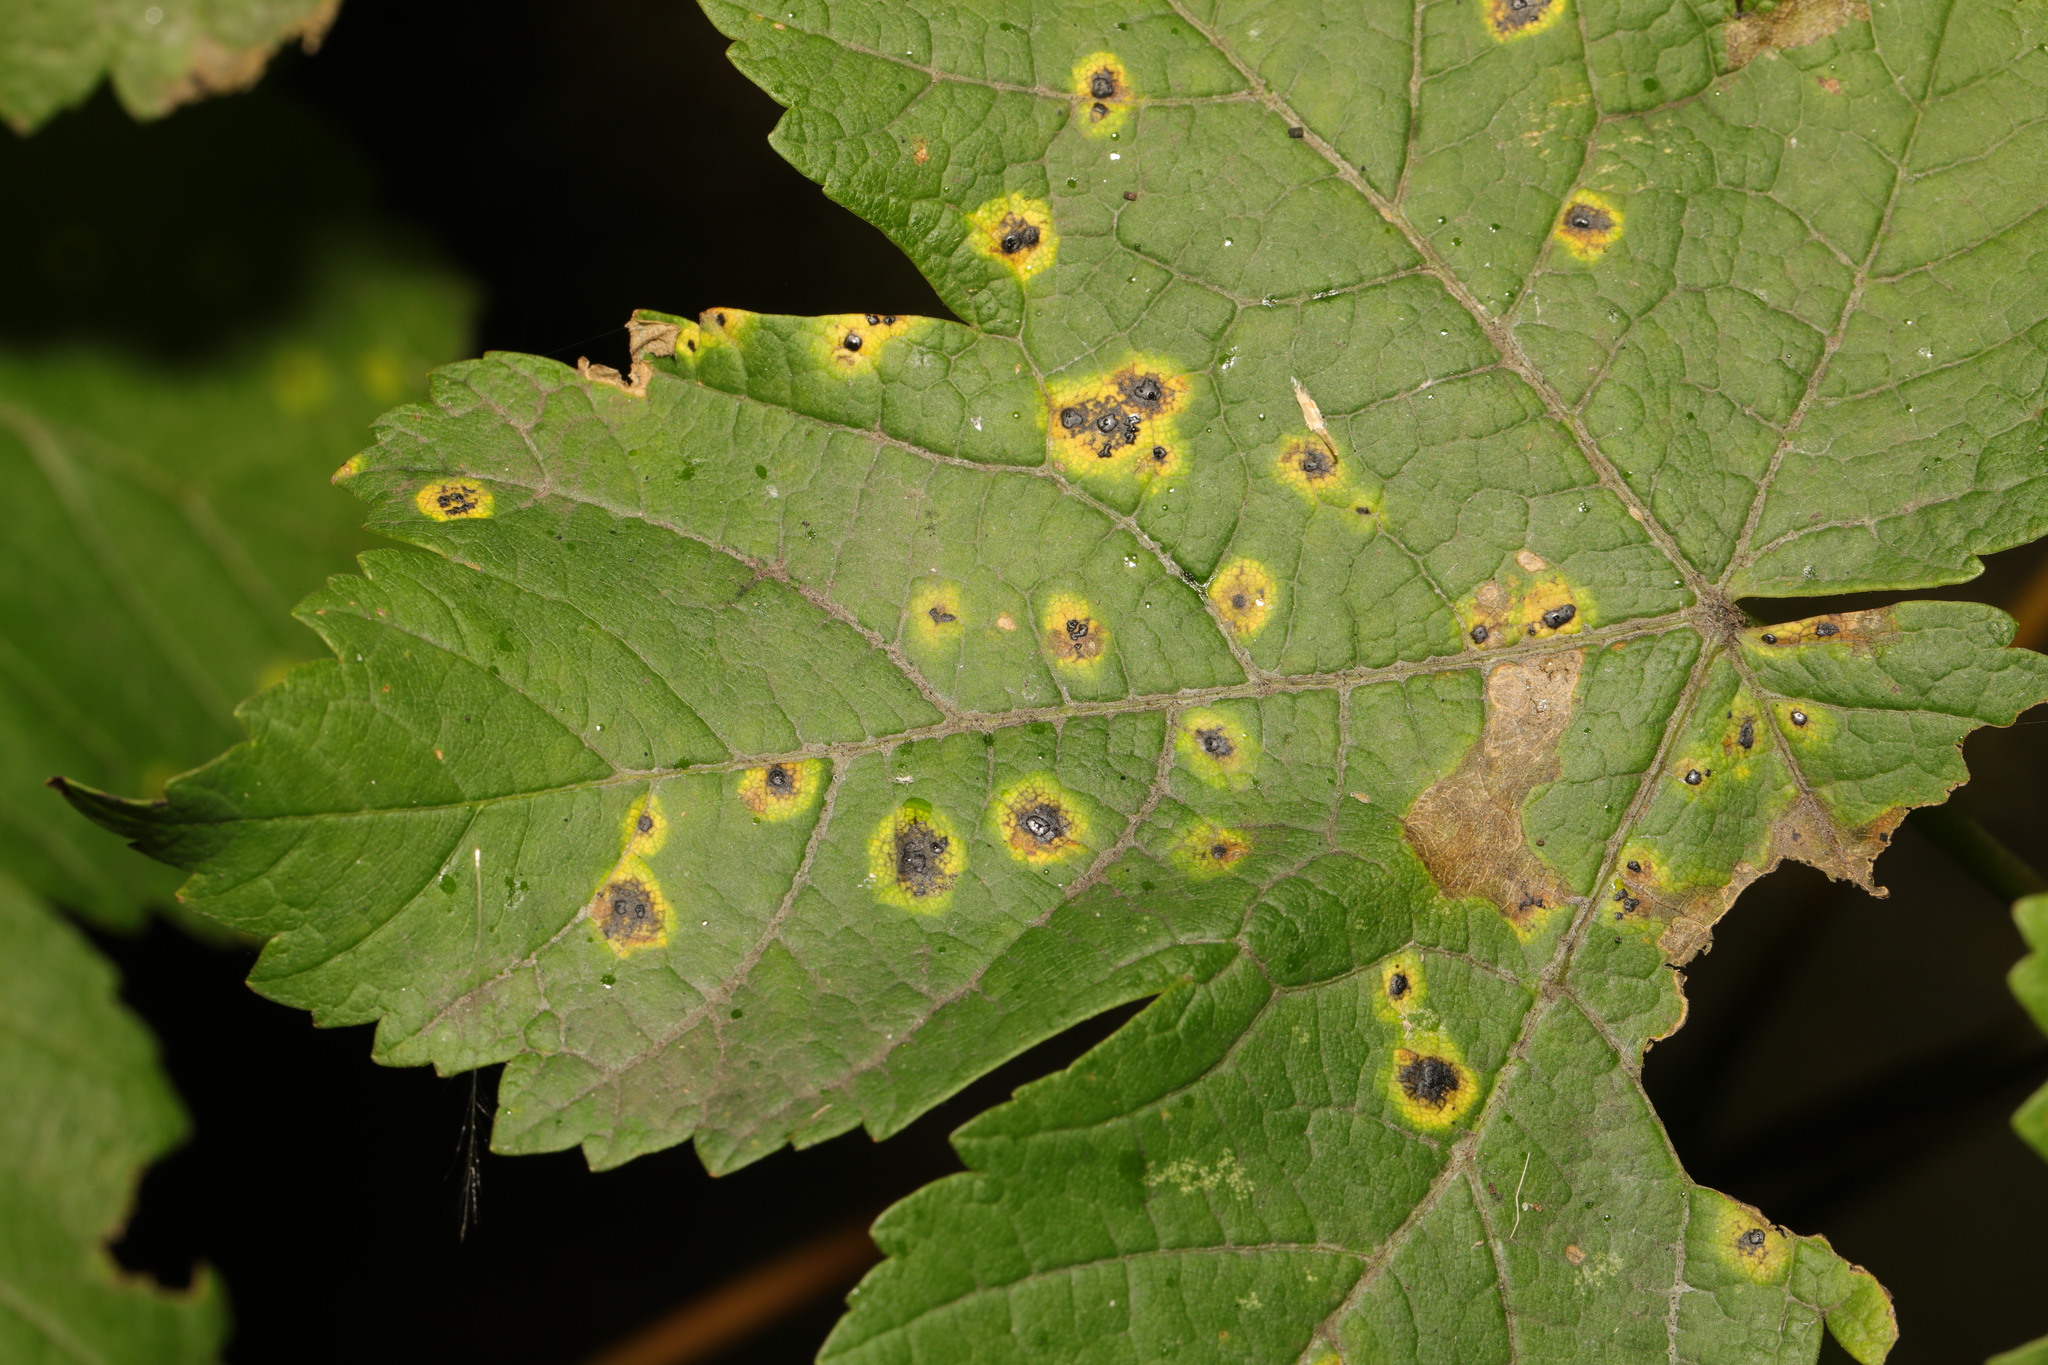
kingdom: Fungi
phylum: Ascomycota
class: Leotiomycetes
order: Rhytismatales
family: Rhytismataceae
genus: Rhytisma
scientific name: Rhytisma acerinum
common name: European tar spot
